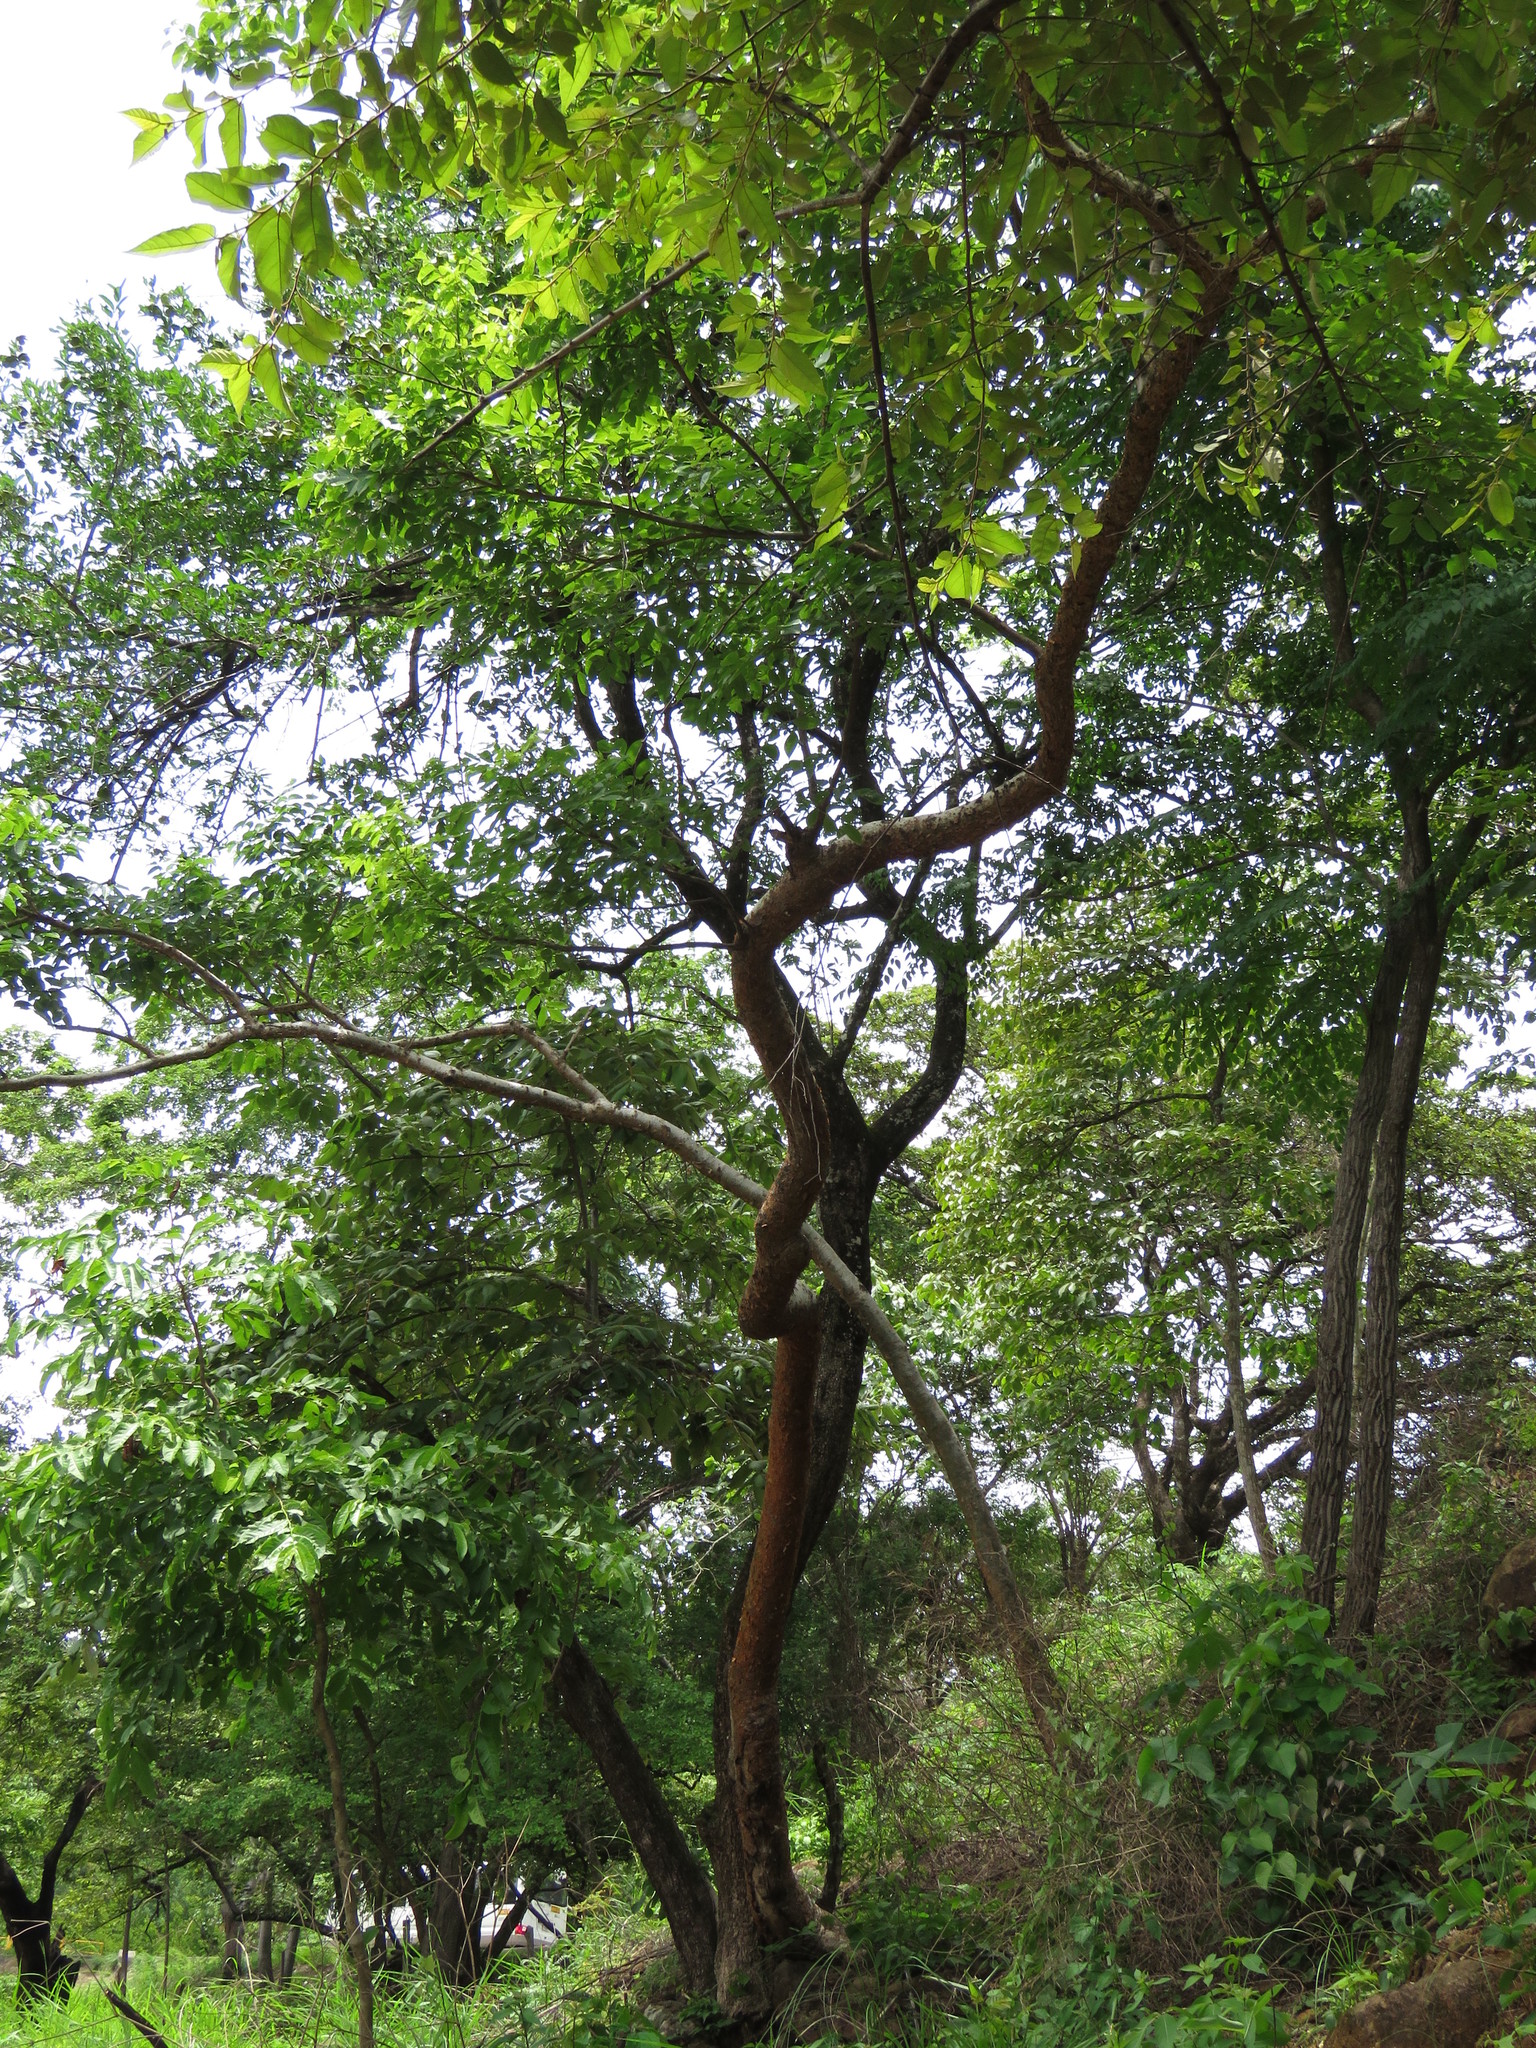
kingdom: Plantae
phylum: Tracheophyta
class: Magnoliopsida
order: Sapindales
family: Burseraceae
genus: Bursera
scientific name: Bursera simaruba
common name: Turpentine tree
